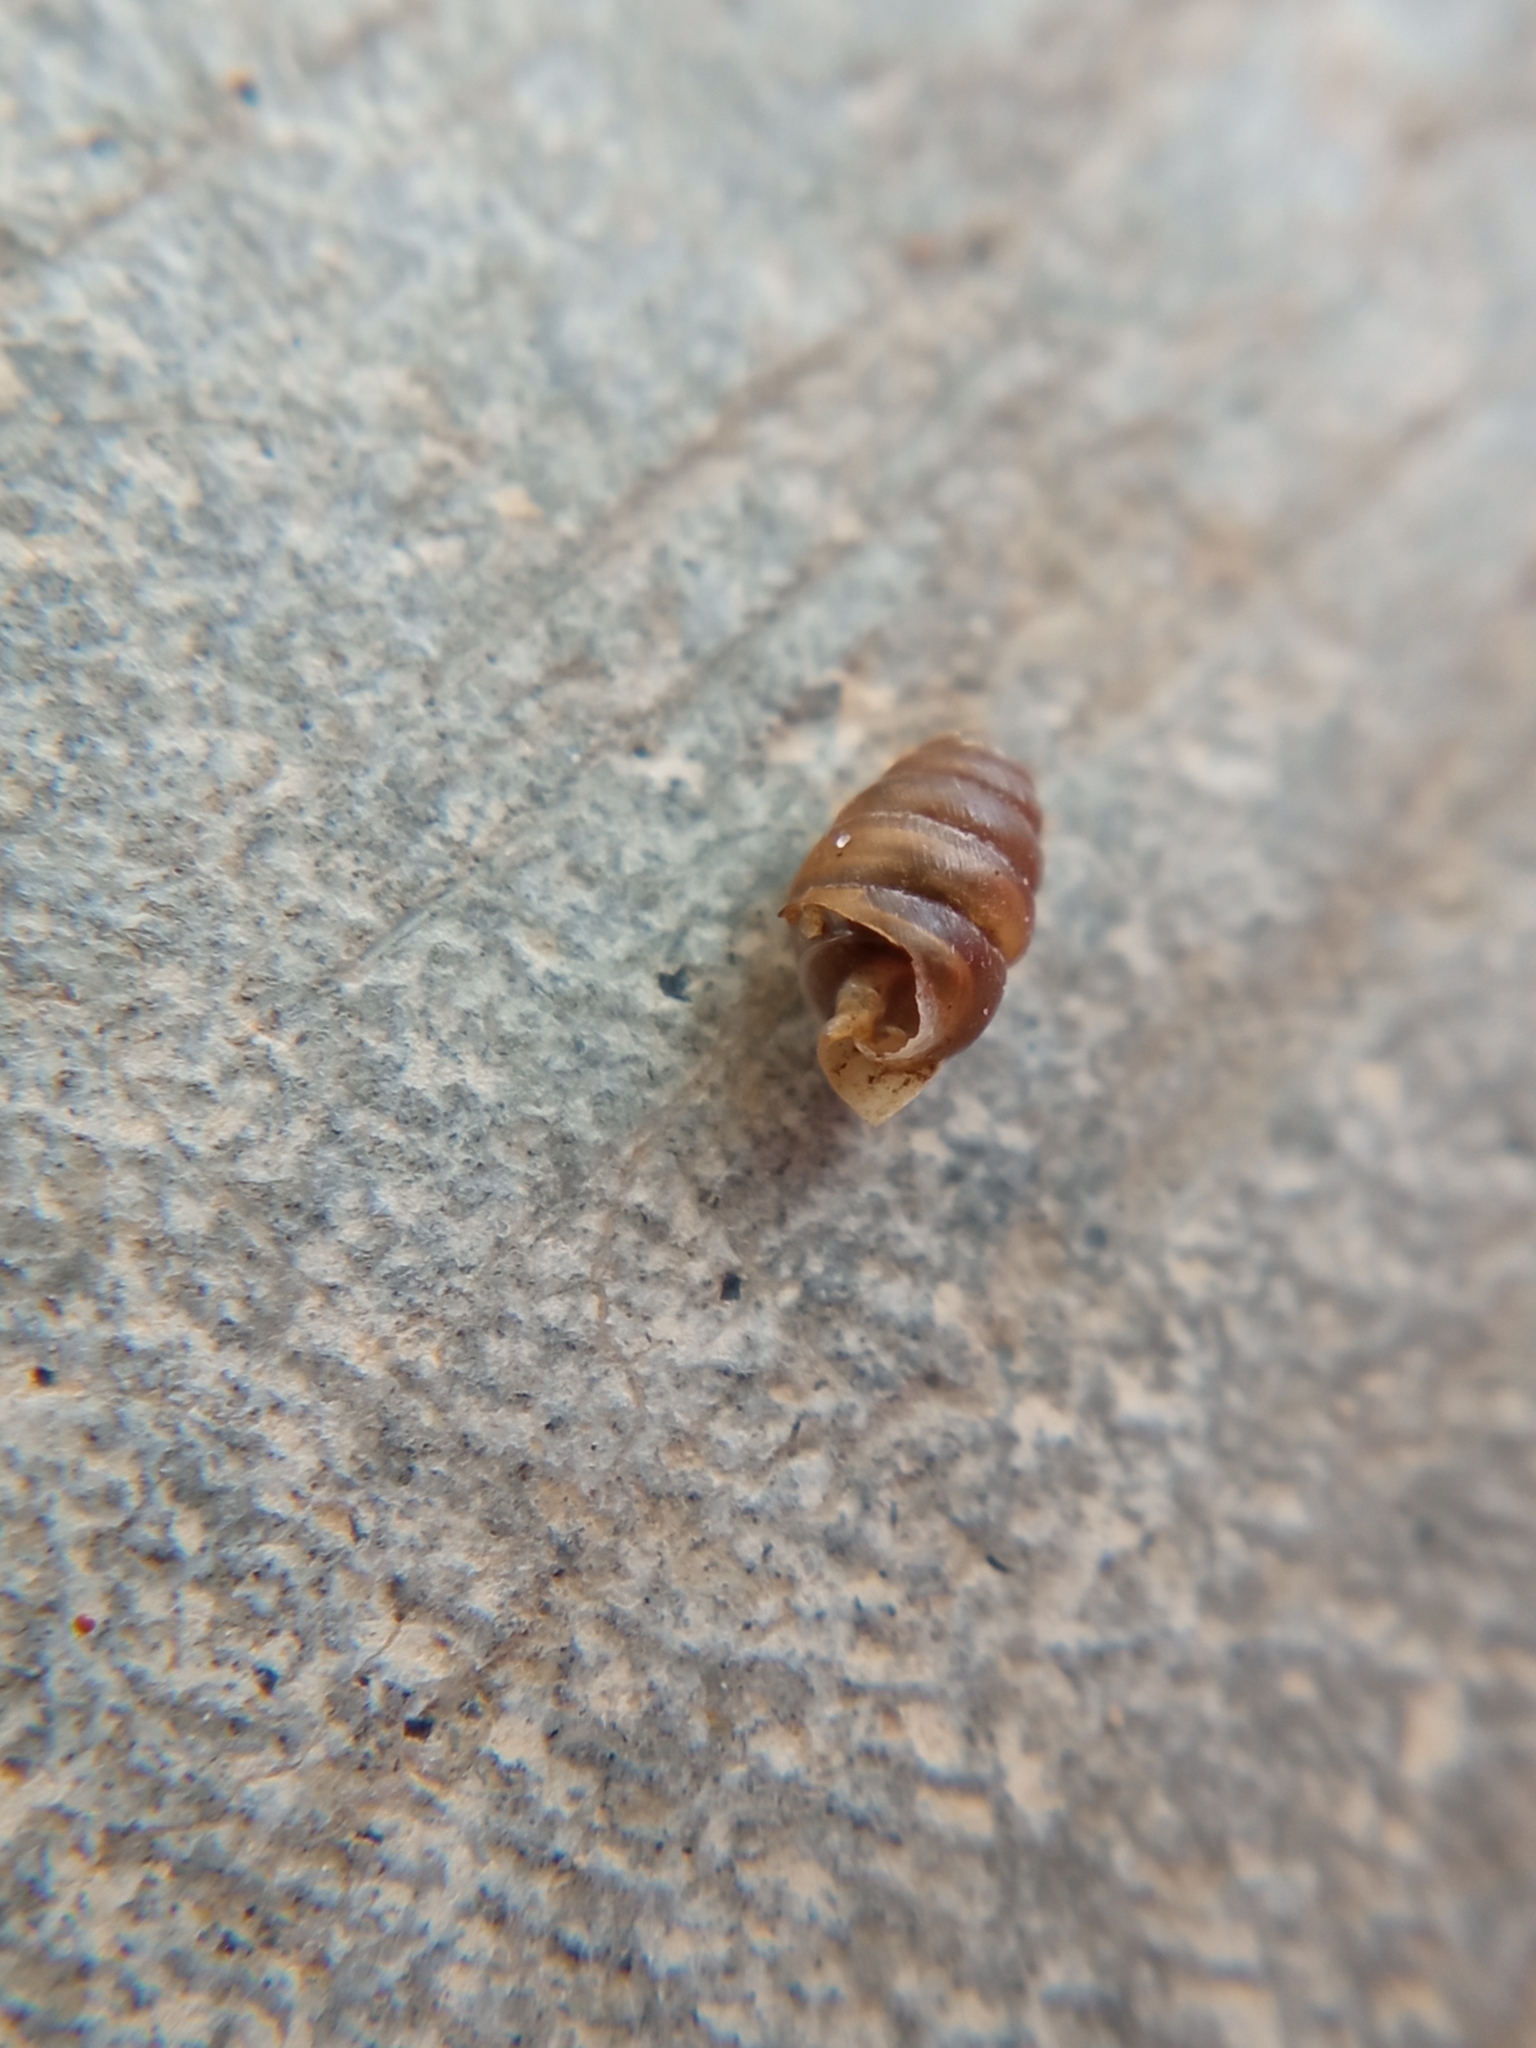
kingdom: Animalia
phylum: Mollusca
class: Gastropoda
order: Stylommatophora
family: Lauriidae
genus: Lauria
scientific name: Lauria cylindracea
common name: Common chrysalis snail
